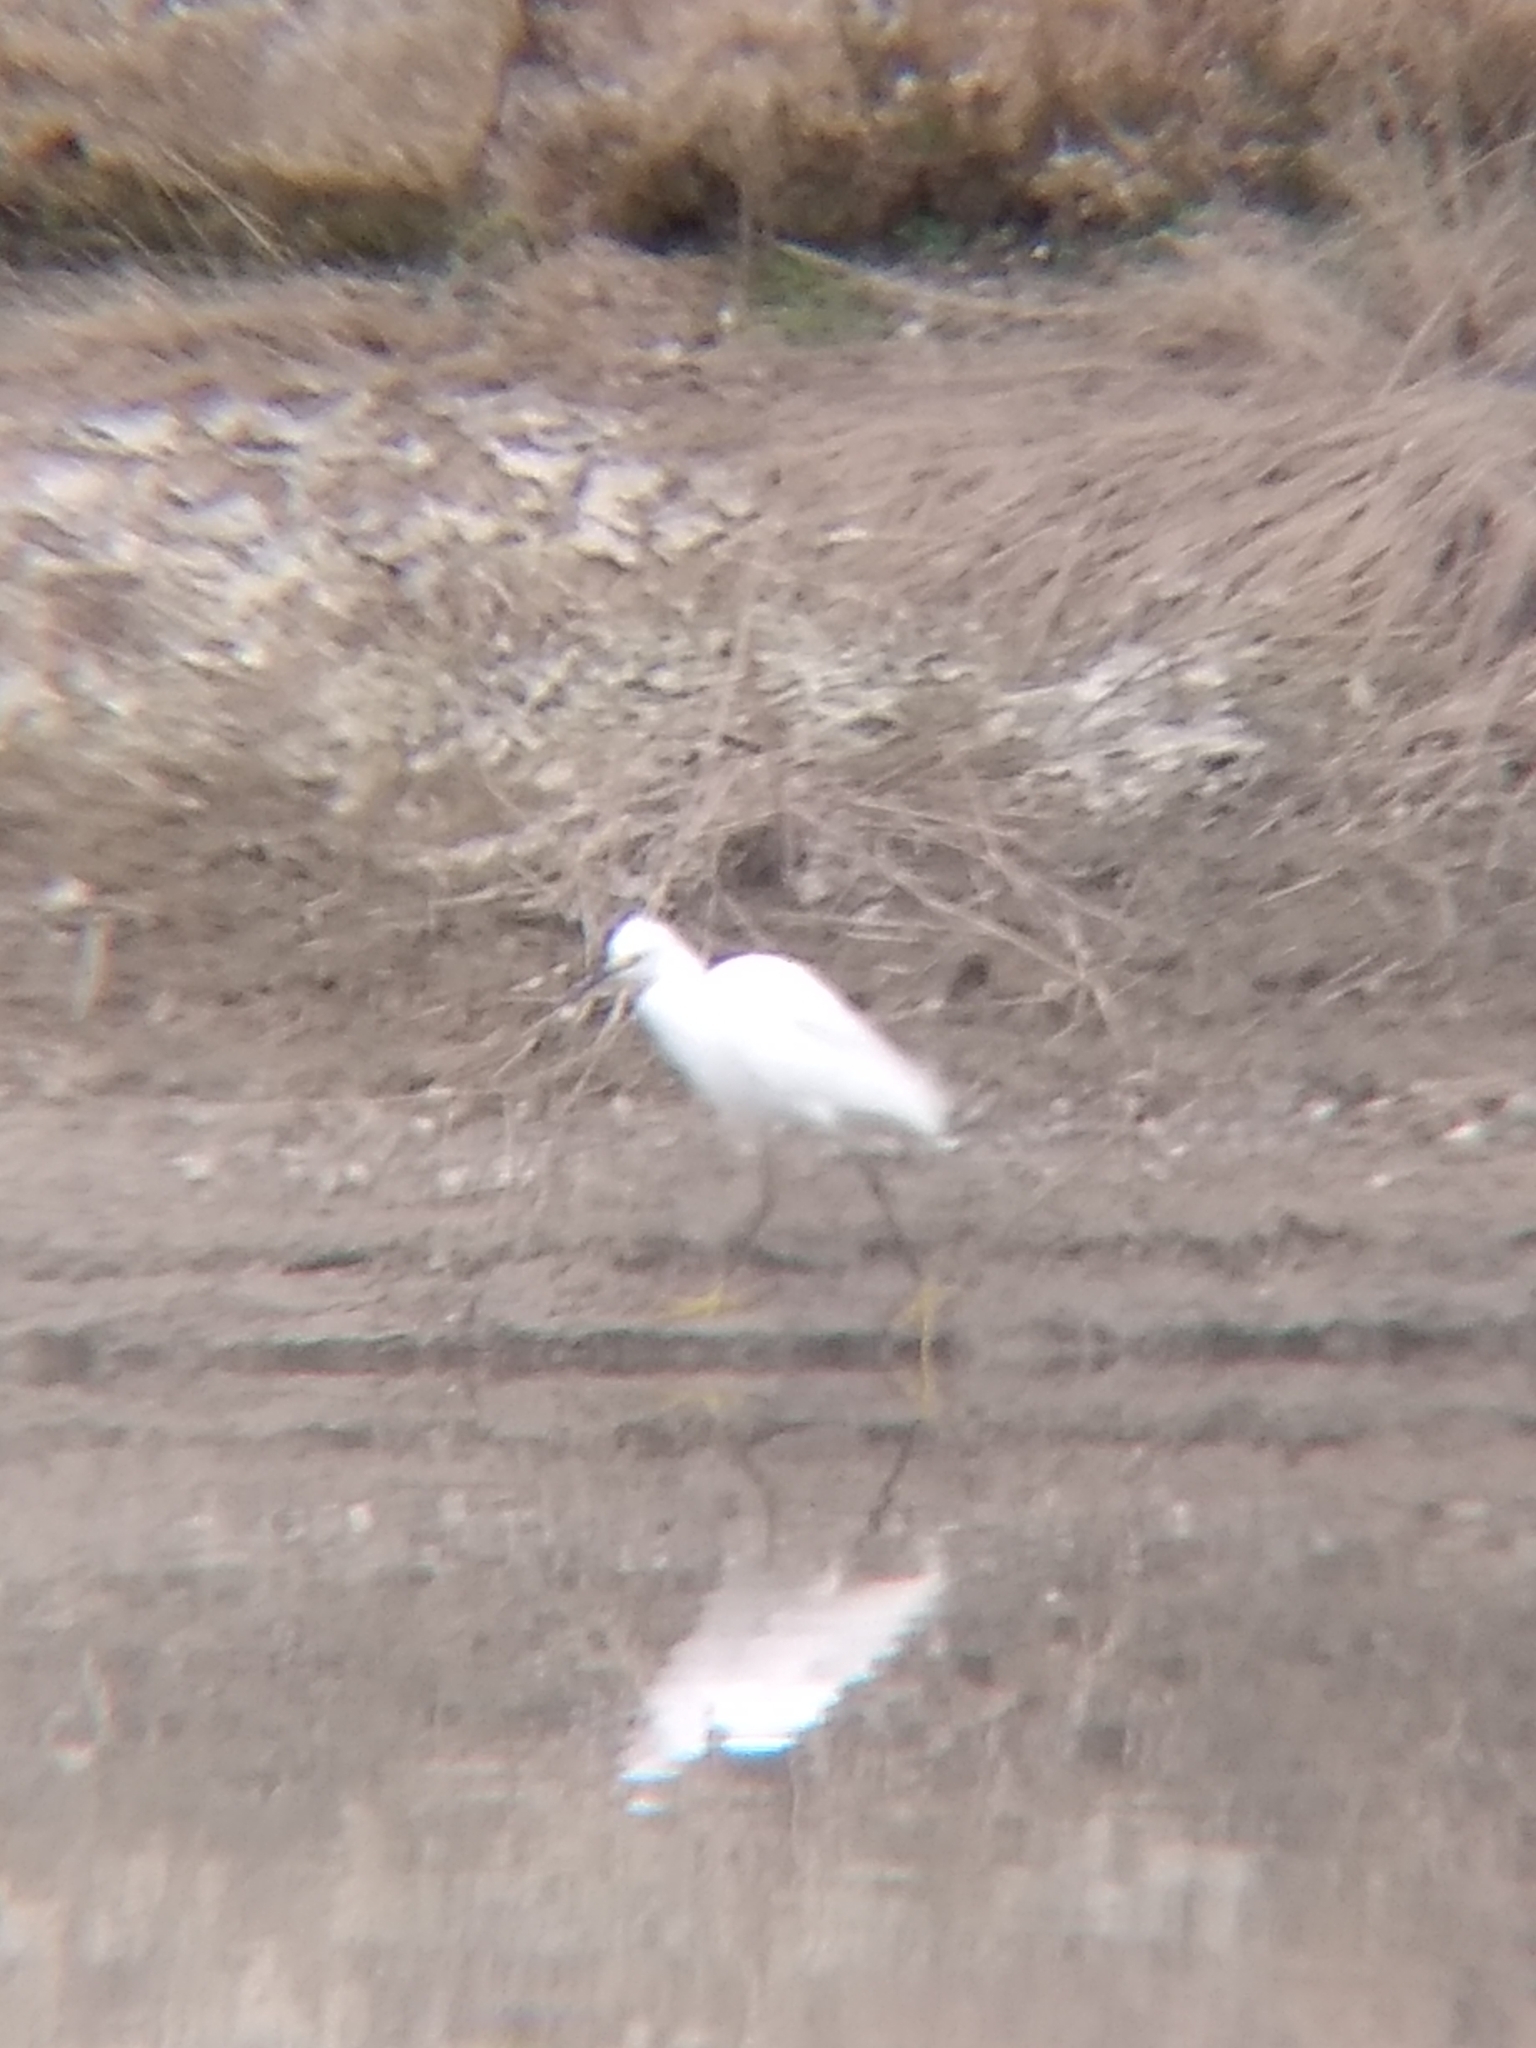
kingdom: Animalia
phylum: Chordata
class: Aves
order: Pelecaniformes
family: Ardeidae
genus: Egretta
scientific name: Egretta thula
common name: Snowy egret
